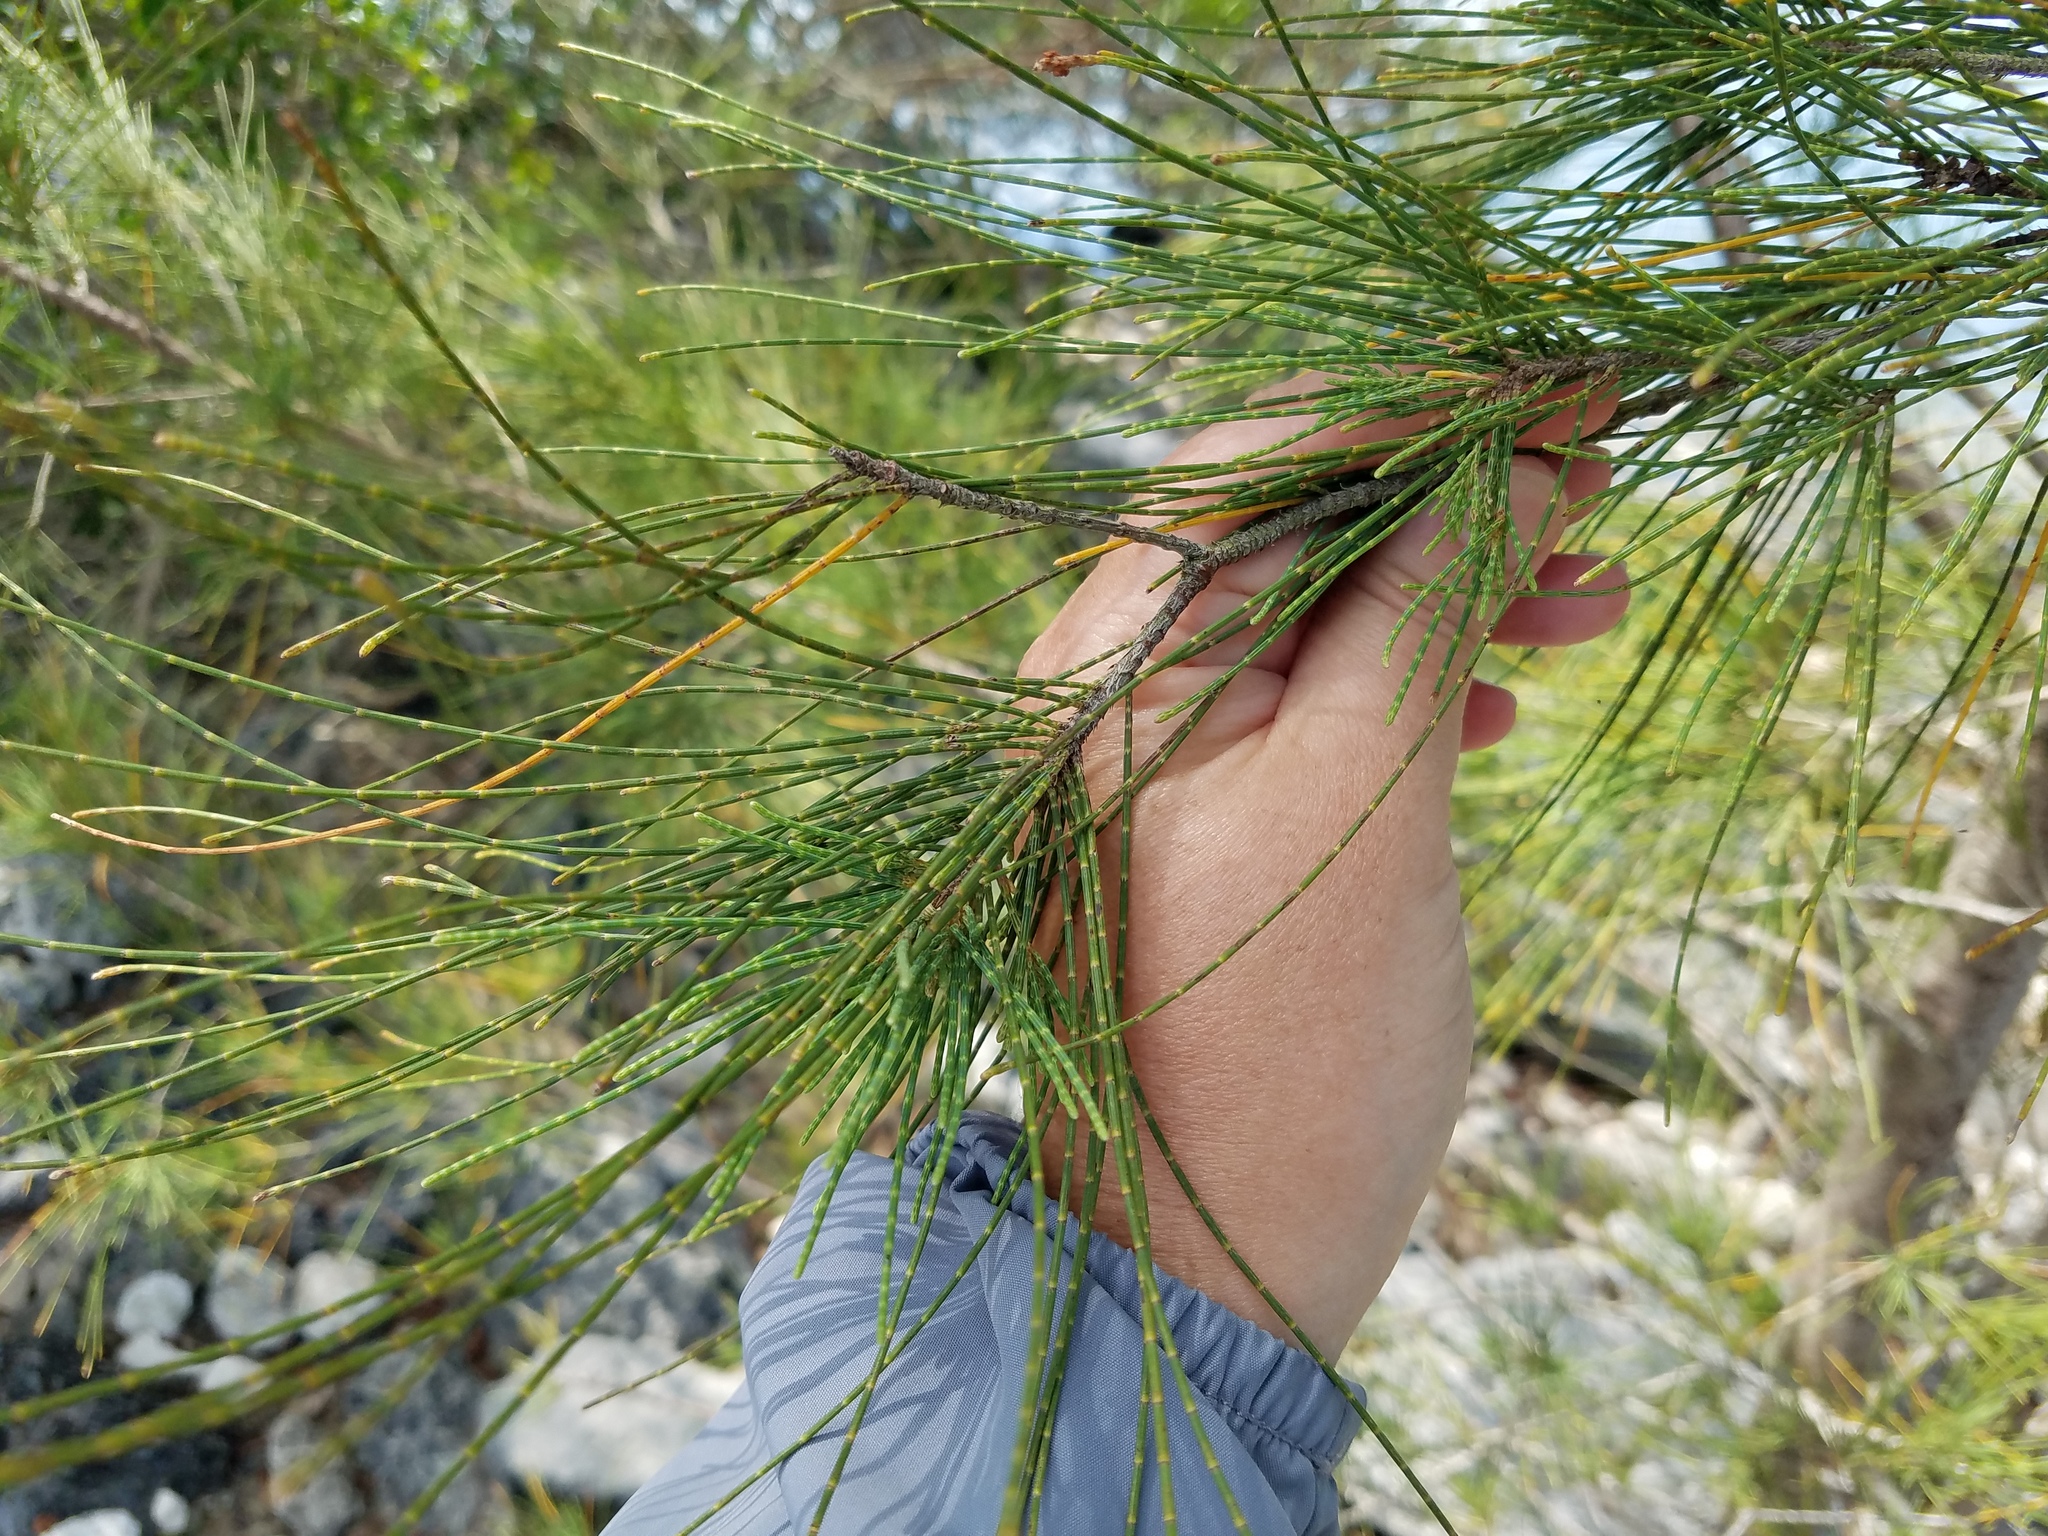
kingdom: Plantae
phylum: Tracheophyta
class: Magnoliopsida
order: Fagales
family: Casuarinaceae
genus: Casuarina
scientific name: Casuarina equisetifolia
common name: Beach sheoak
